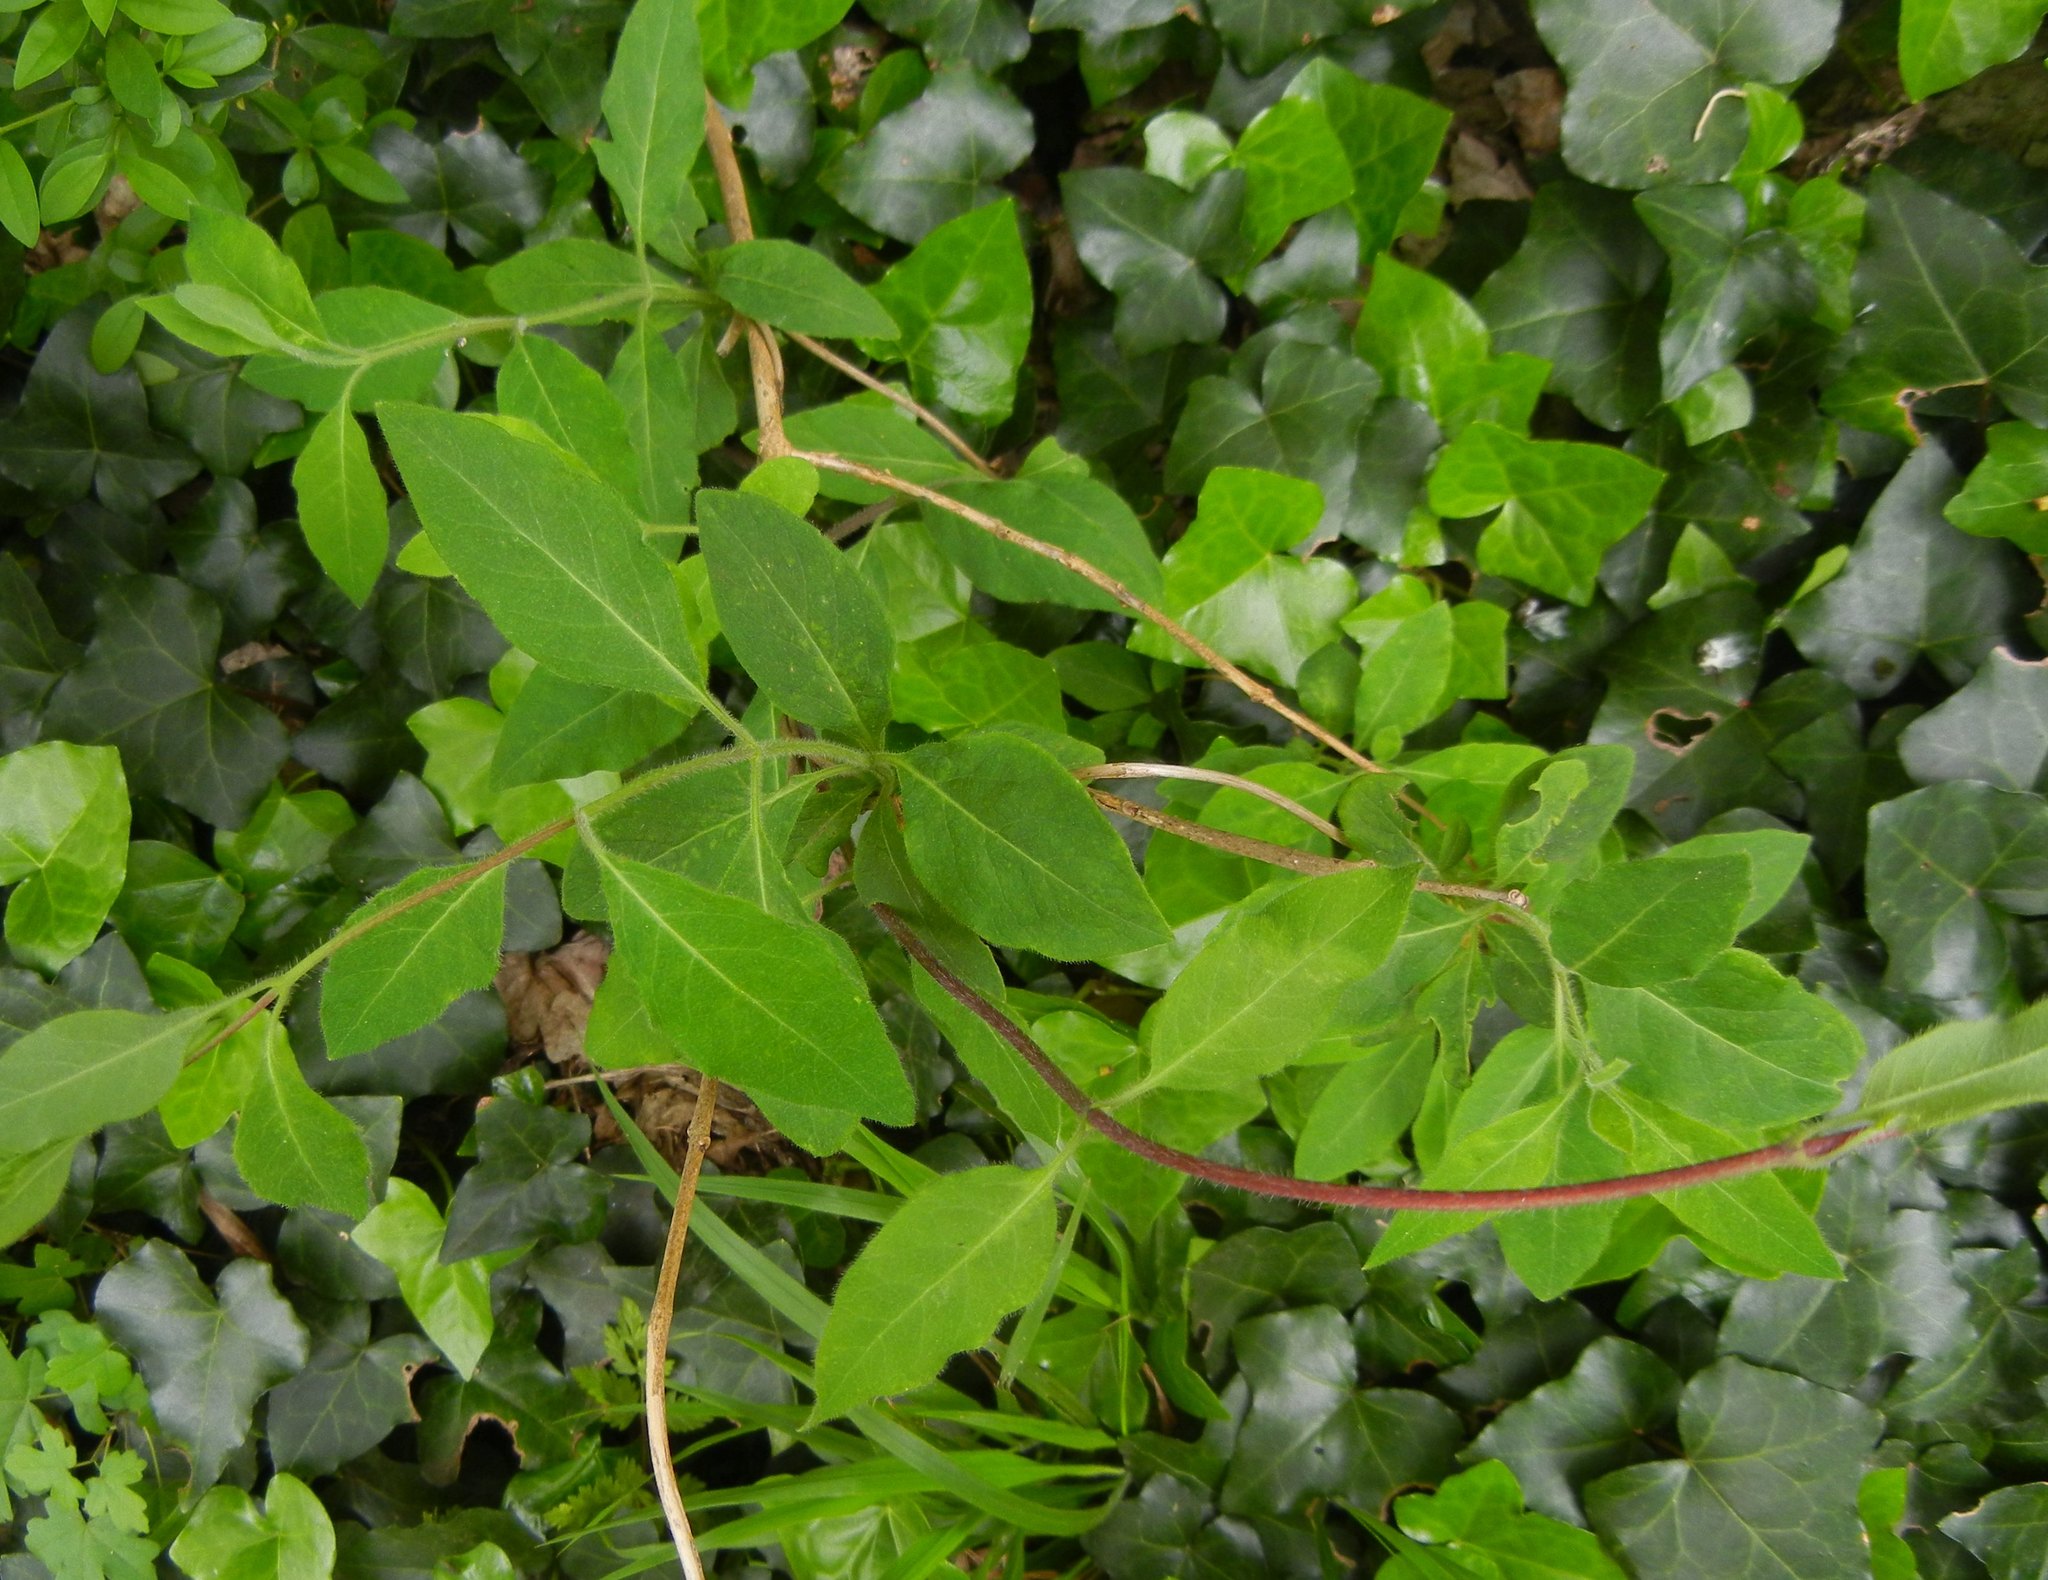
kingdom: Plantae
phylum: Tracheophyta
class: Magnoliopsida
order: Dipsacales
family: Caprifoliaceae
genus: Lonicera
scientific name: Lonicera periclymenum
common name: European honeysuckle
